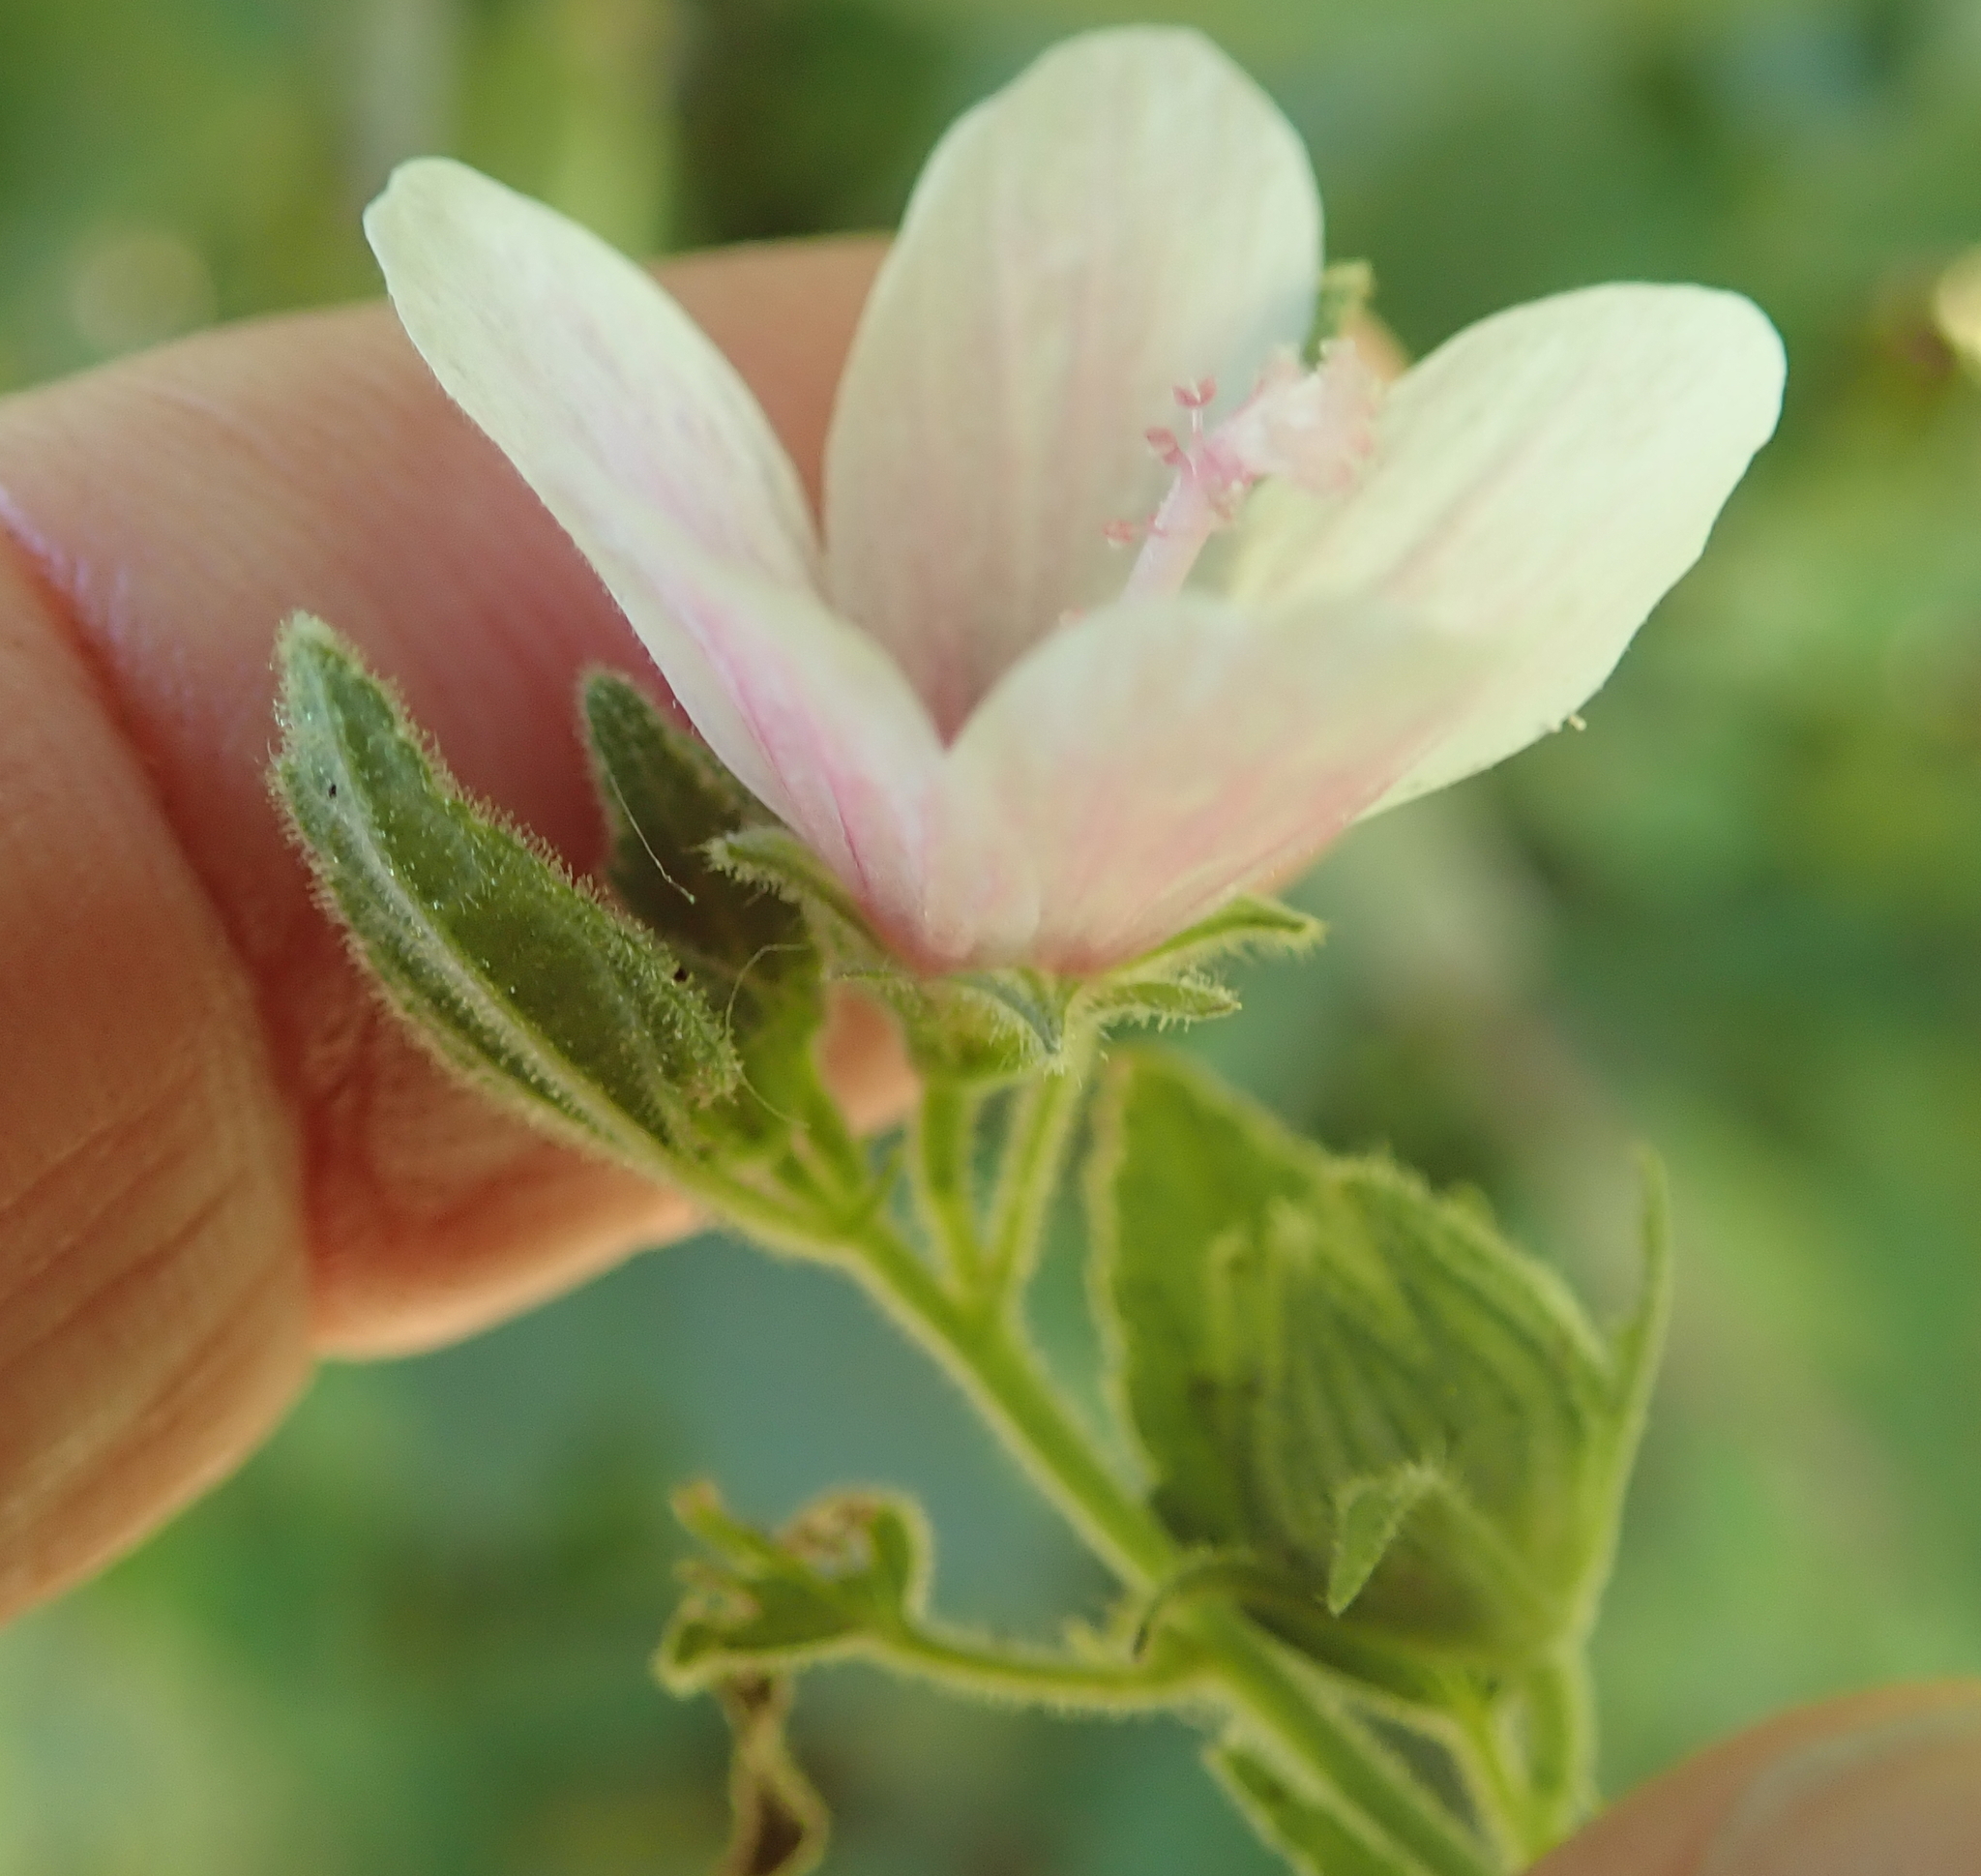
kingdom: Plantae
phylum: Tracheophyta
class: Magnoliopsida
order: Malvales
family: Malvaceae
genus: Pavonia
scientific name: Pavonia columella
